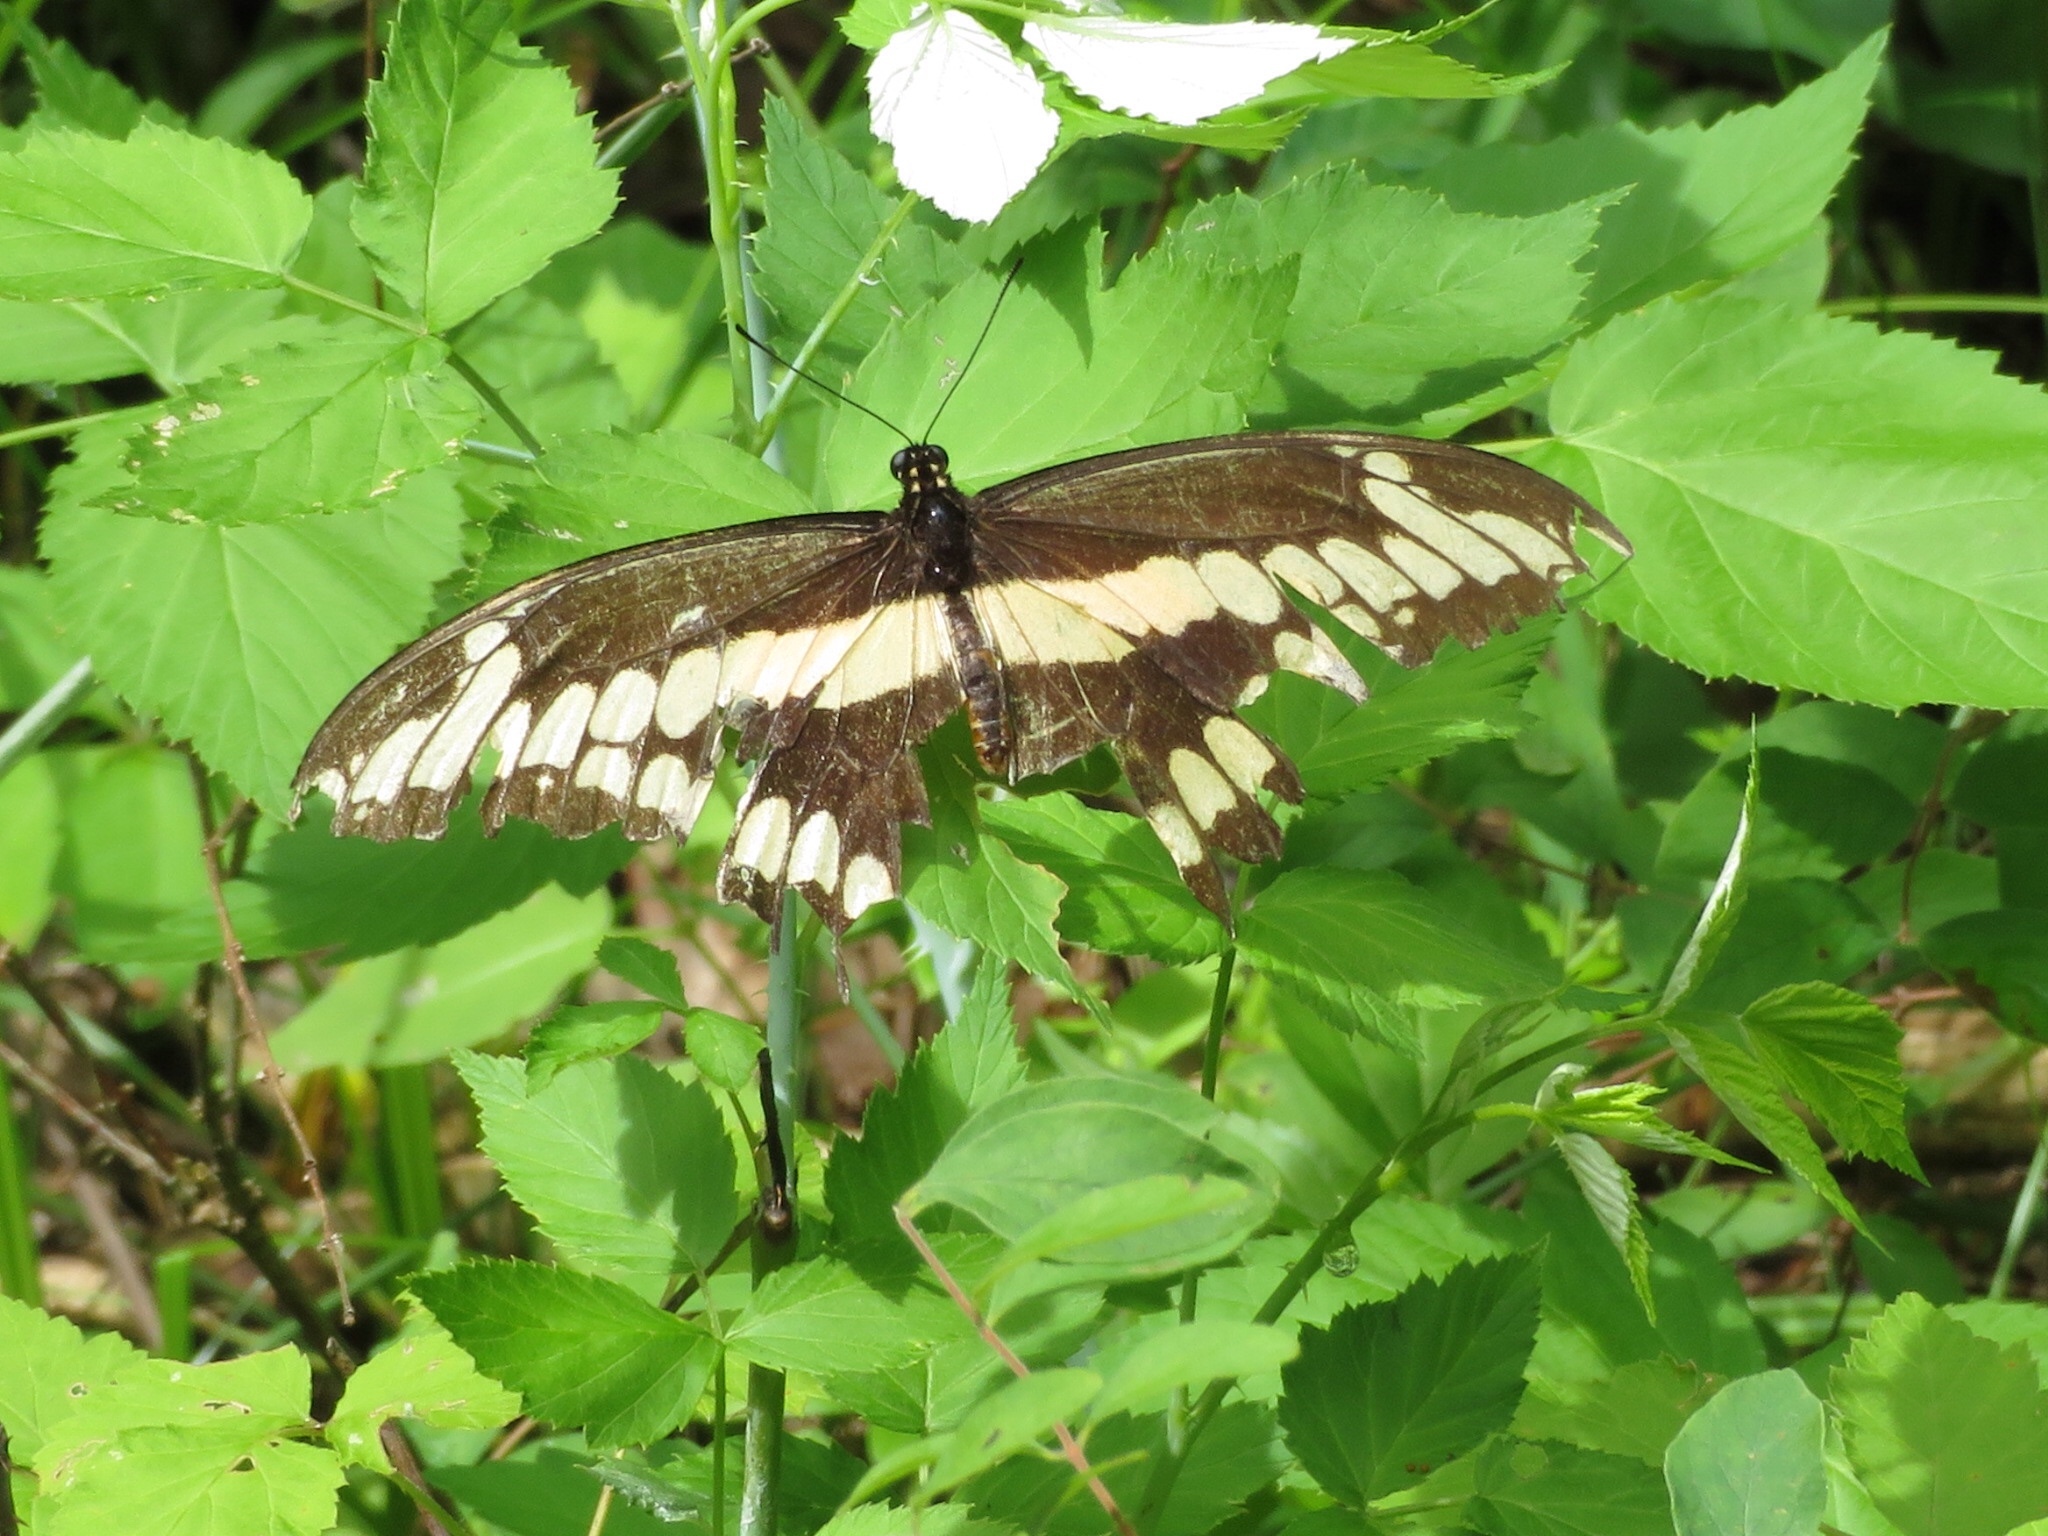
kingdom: Animalia
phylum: Arthropoda
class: Insecta
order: Lepidoptera
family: Papilionidae
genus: Papilio
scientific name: Papilio cresphontes
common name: Giant swallowtail
